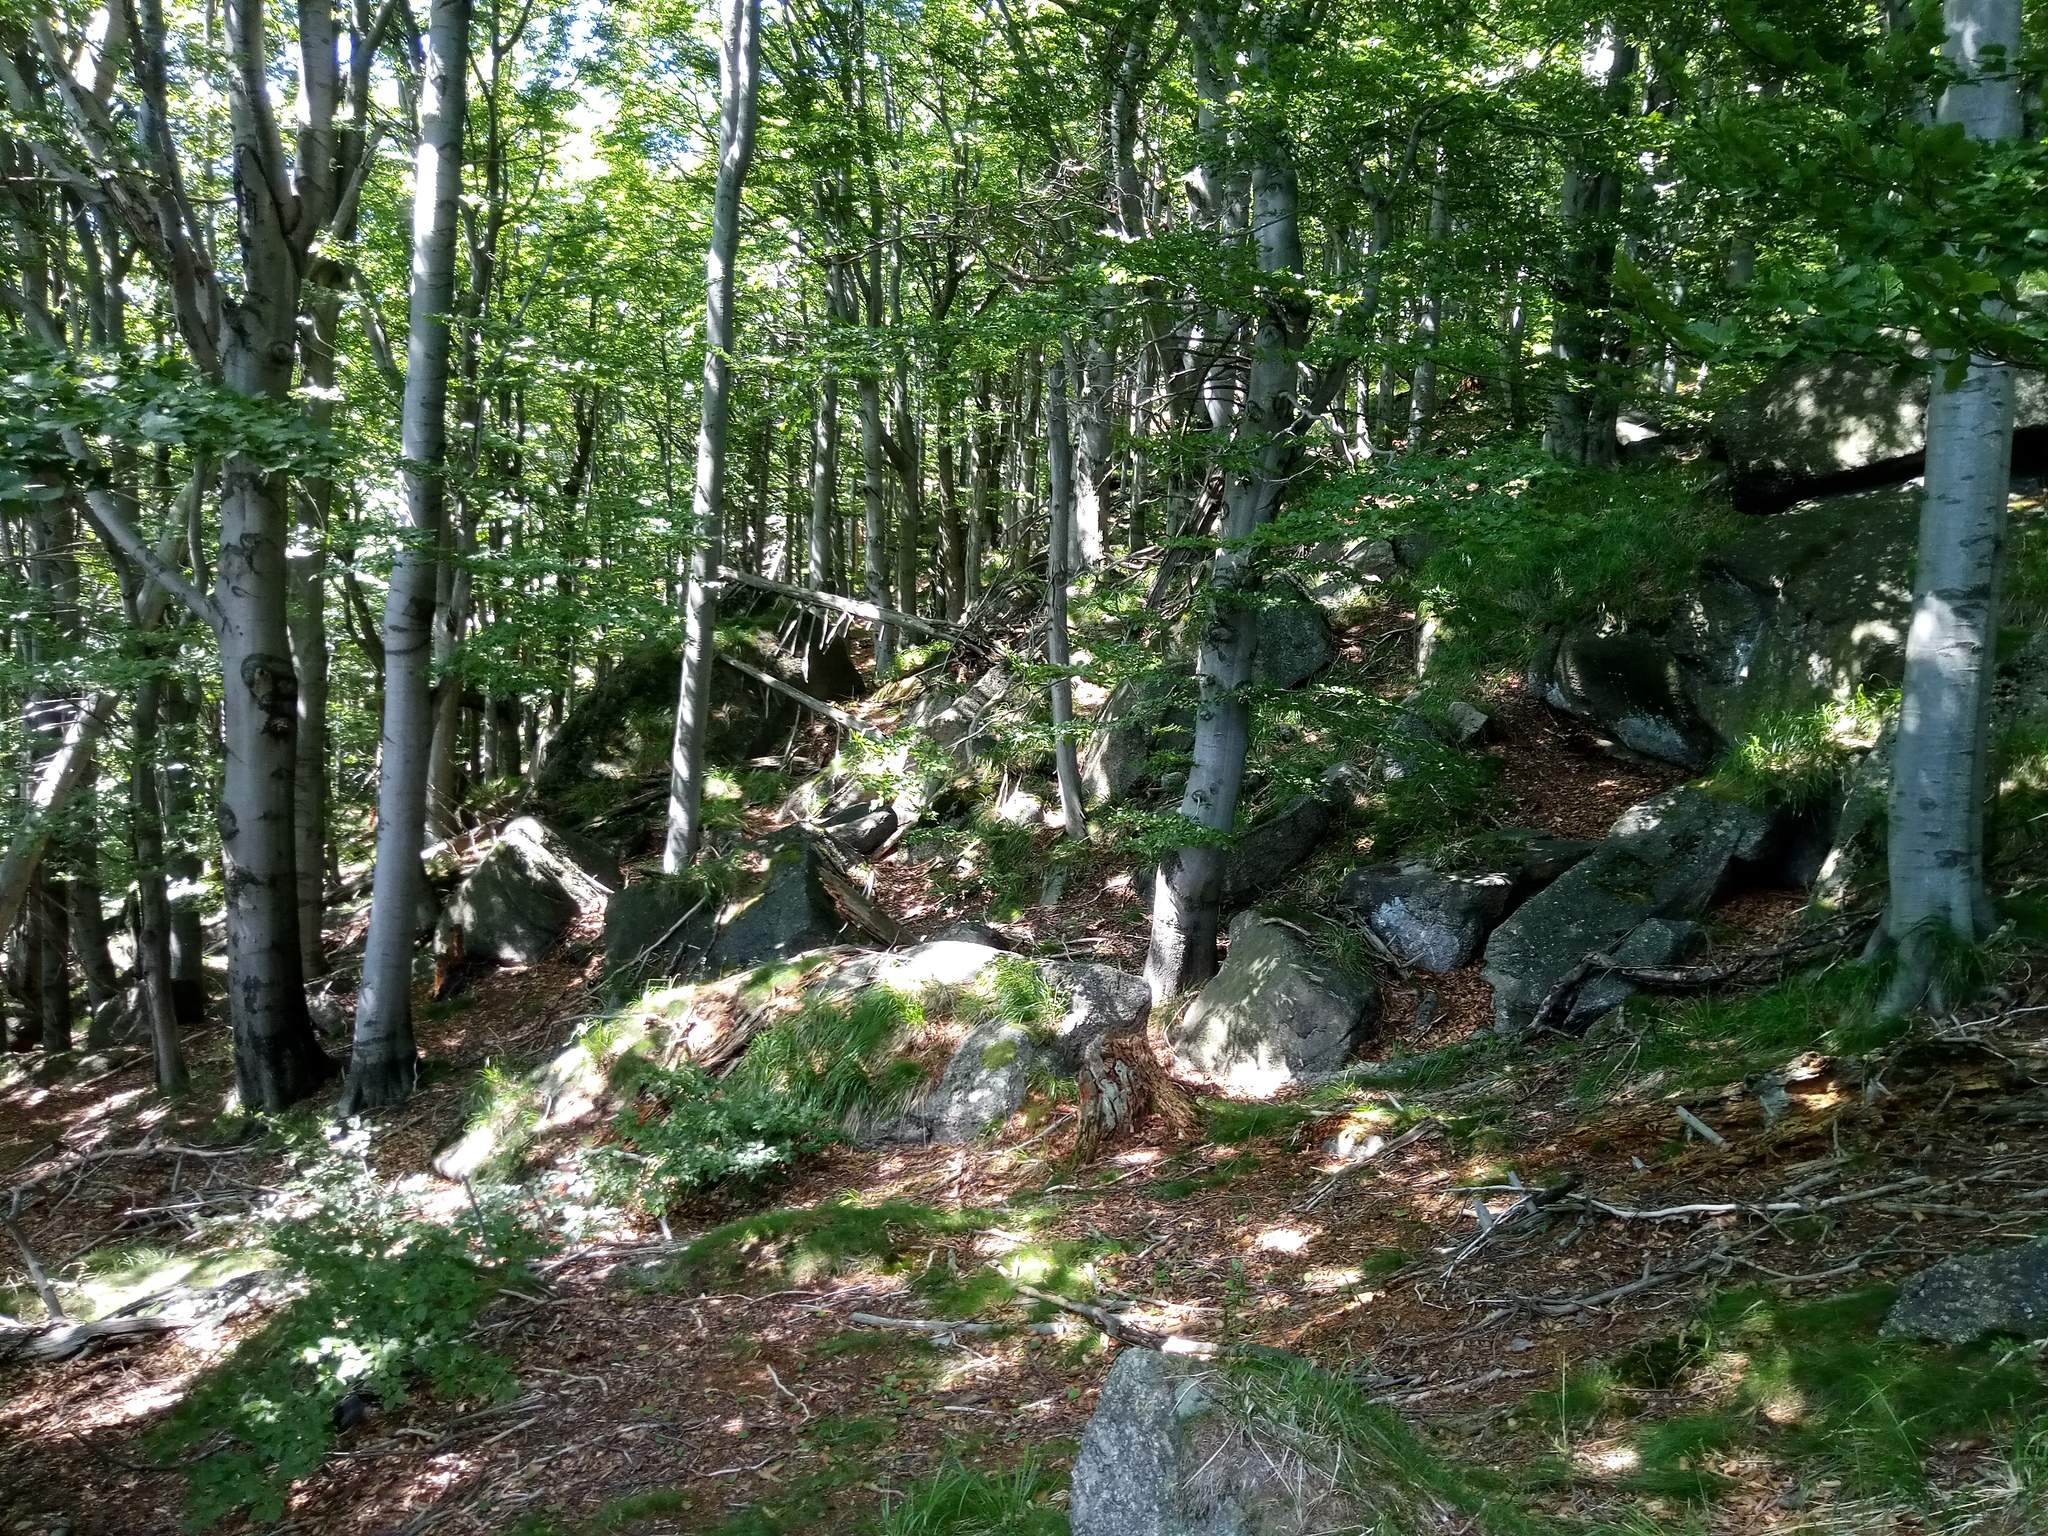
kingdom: Plantae
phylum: Tracheophyta
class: Magnoliopsida
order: Fagales
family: Fagaceae
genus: Fagus
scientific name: Fagus sylvatica
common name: Beech
